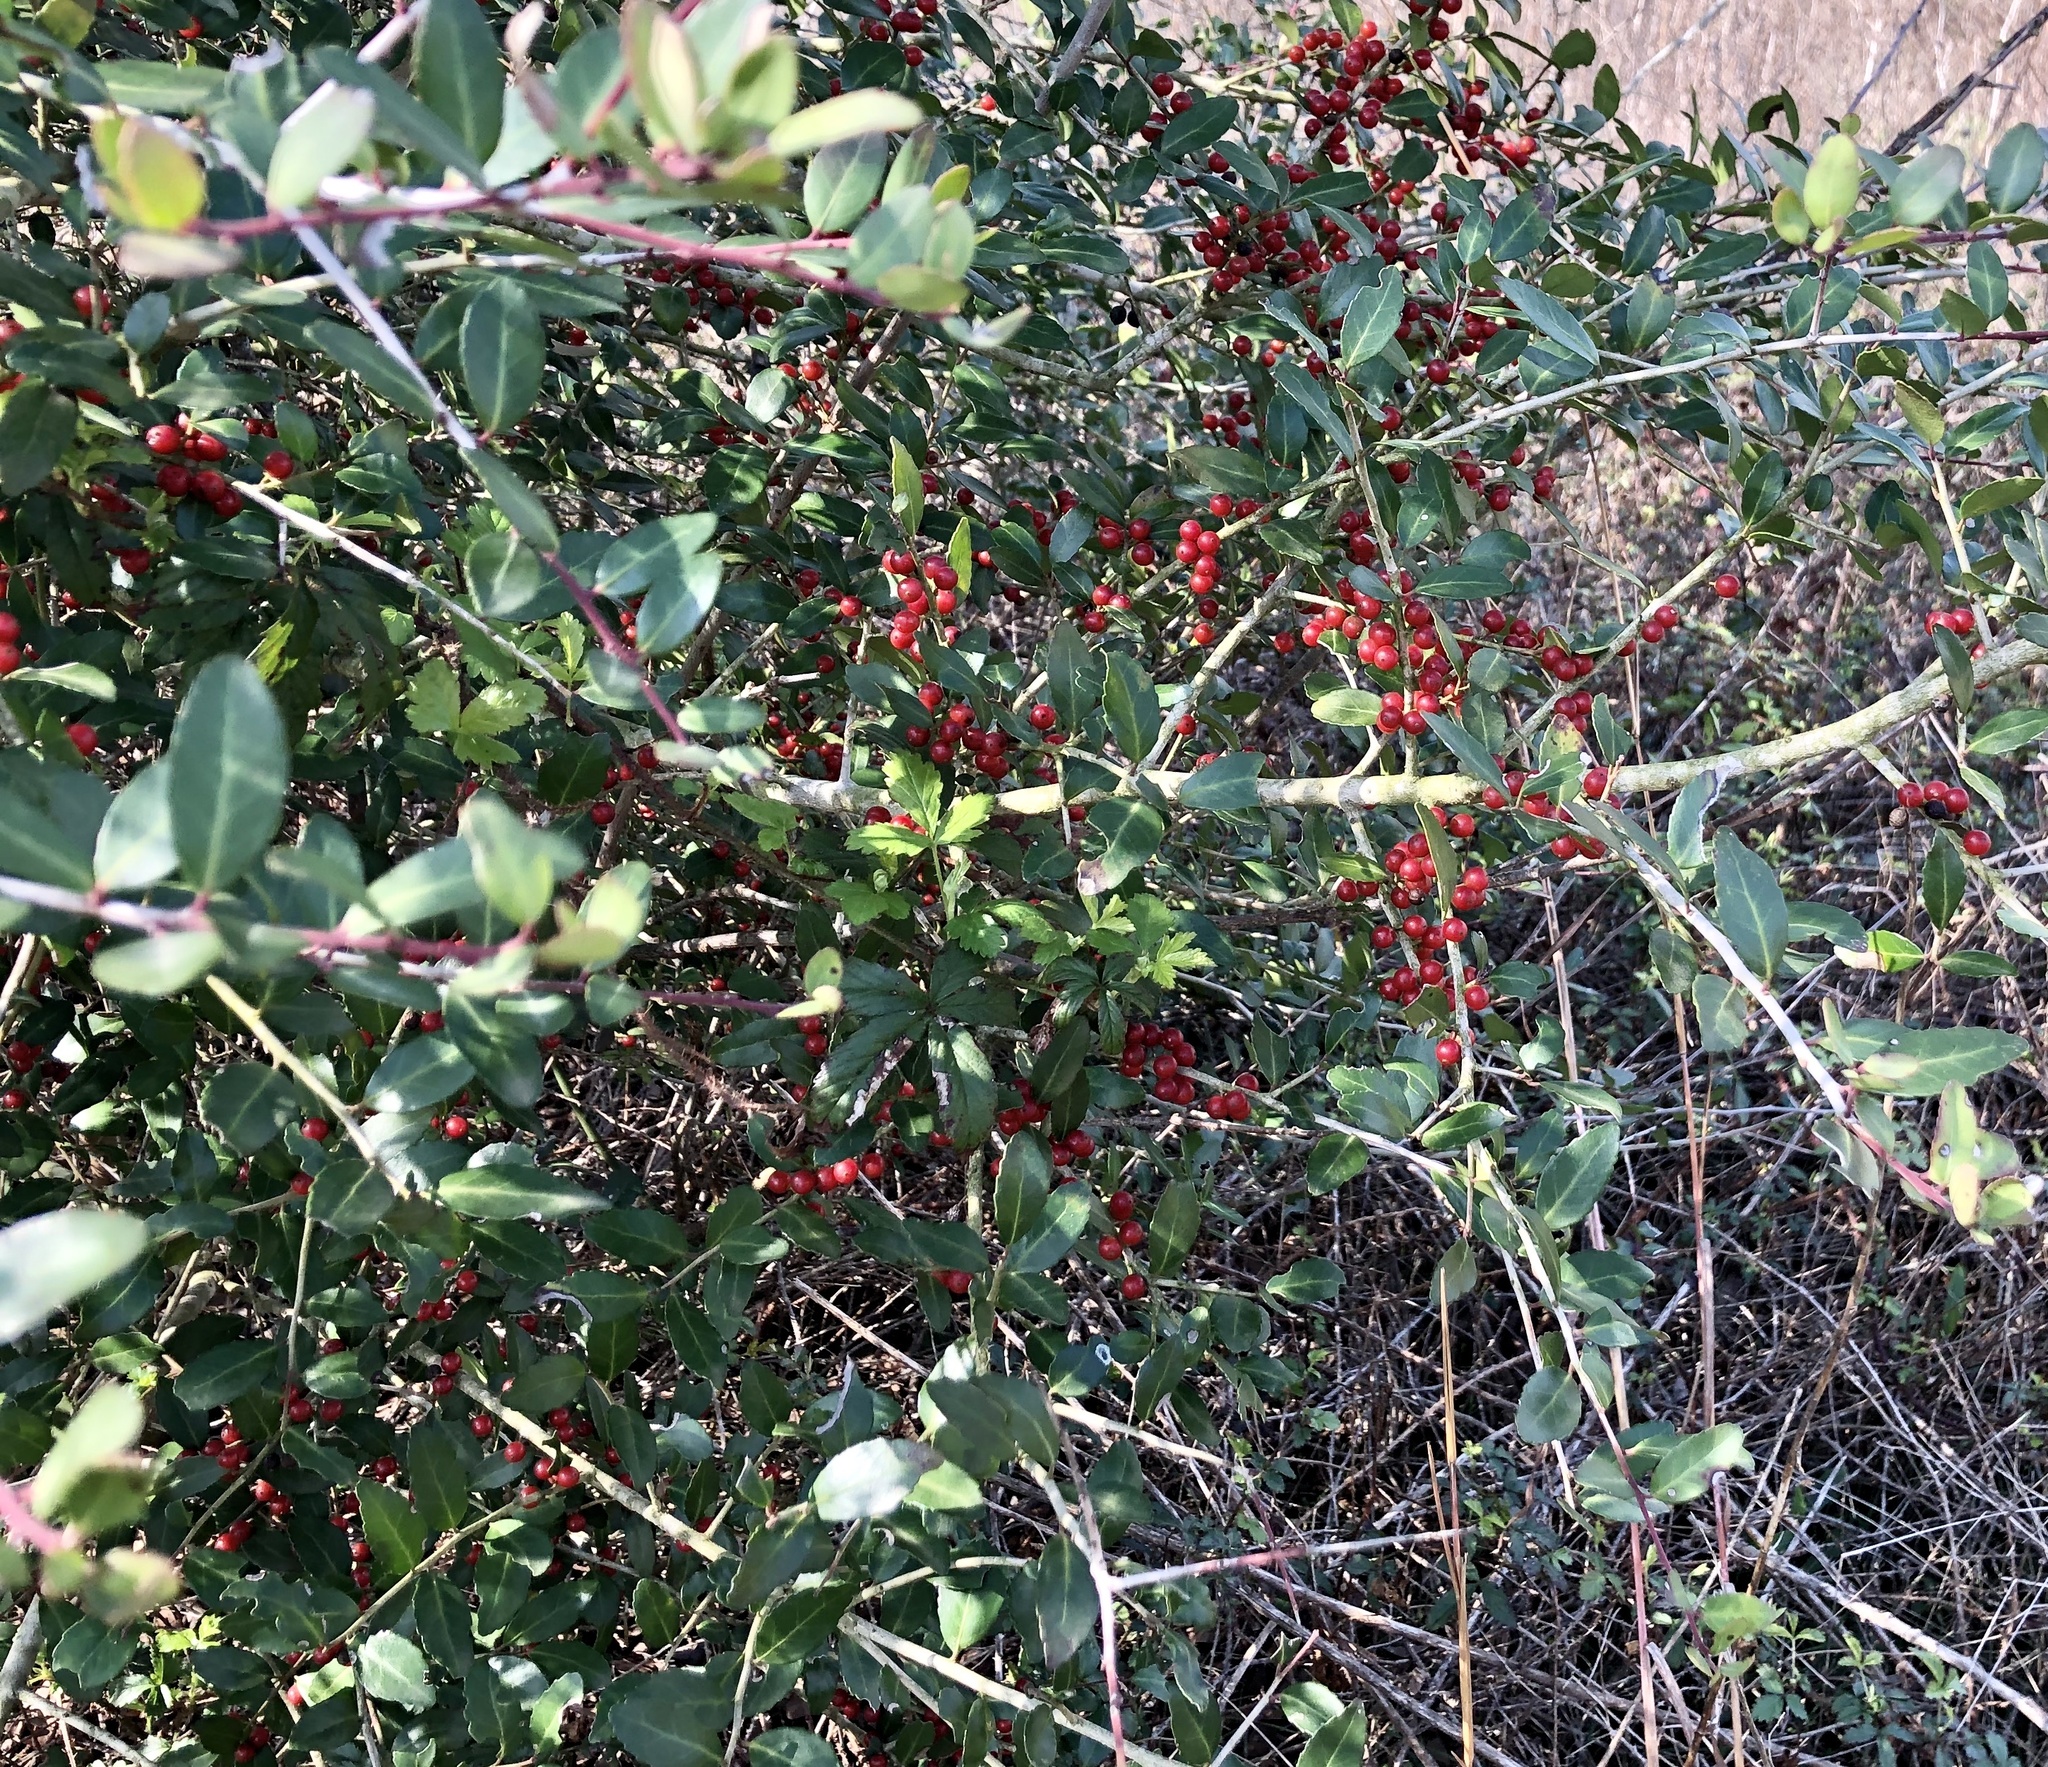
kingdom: Plantae
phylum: Tracheophyta
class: Magnoliopsida
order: Aquifoliales
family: Aquifoliaceae
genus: Ilex
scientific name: Ilex vomitoria
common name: Yaupon holly
